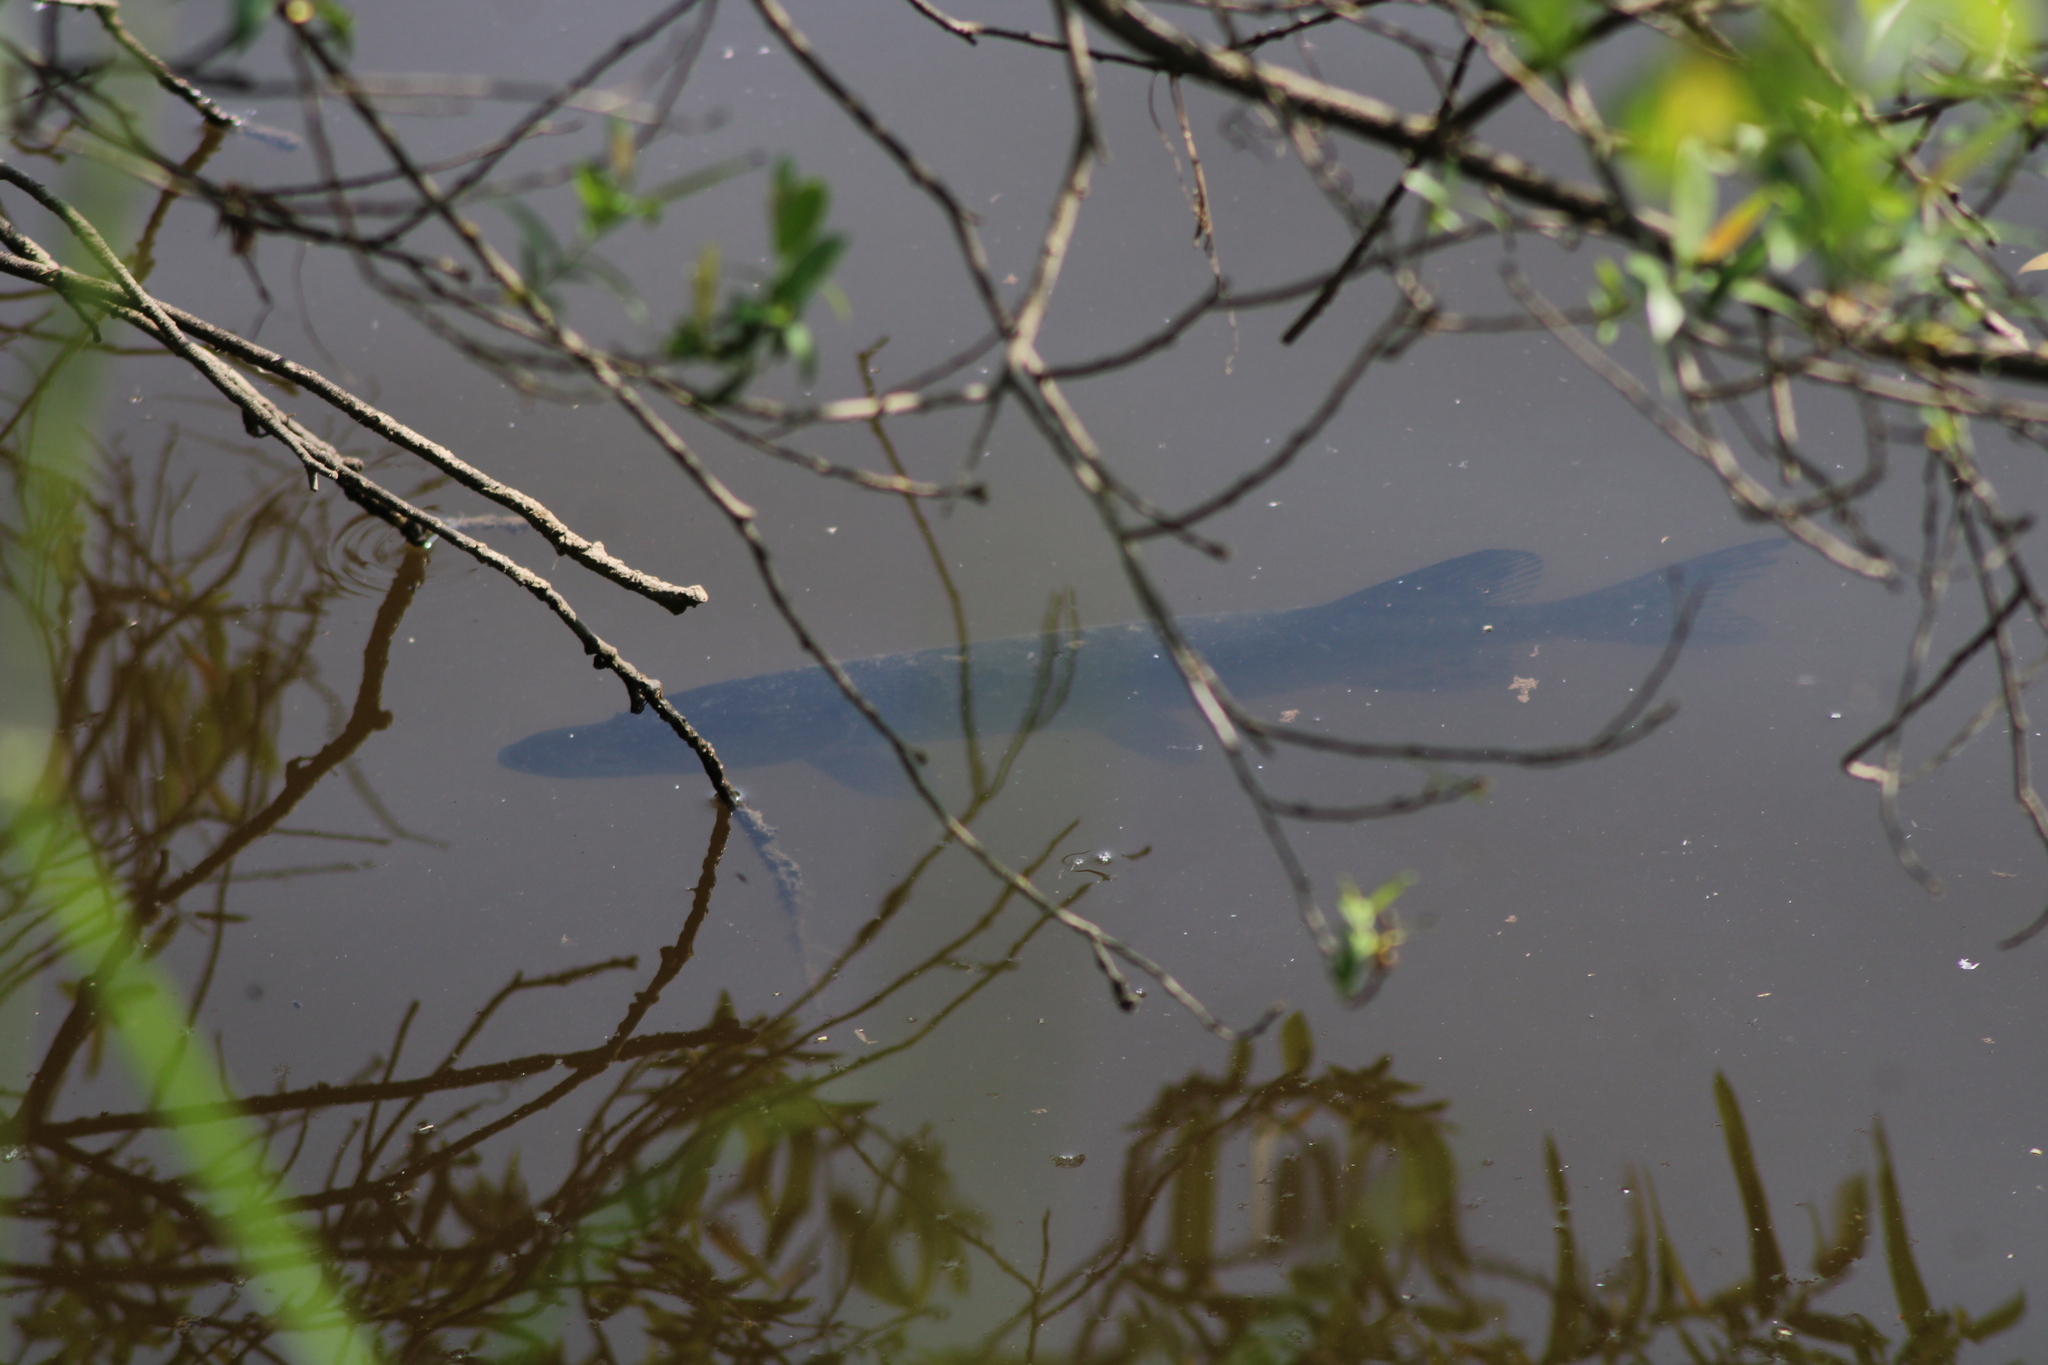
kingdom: Animalia
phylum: Chordata
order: Esociformes
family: Esocidae
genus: Esox
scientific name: Esox lucius
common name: Northern pike
